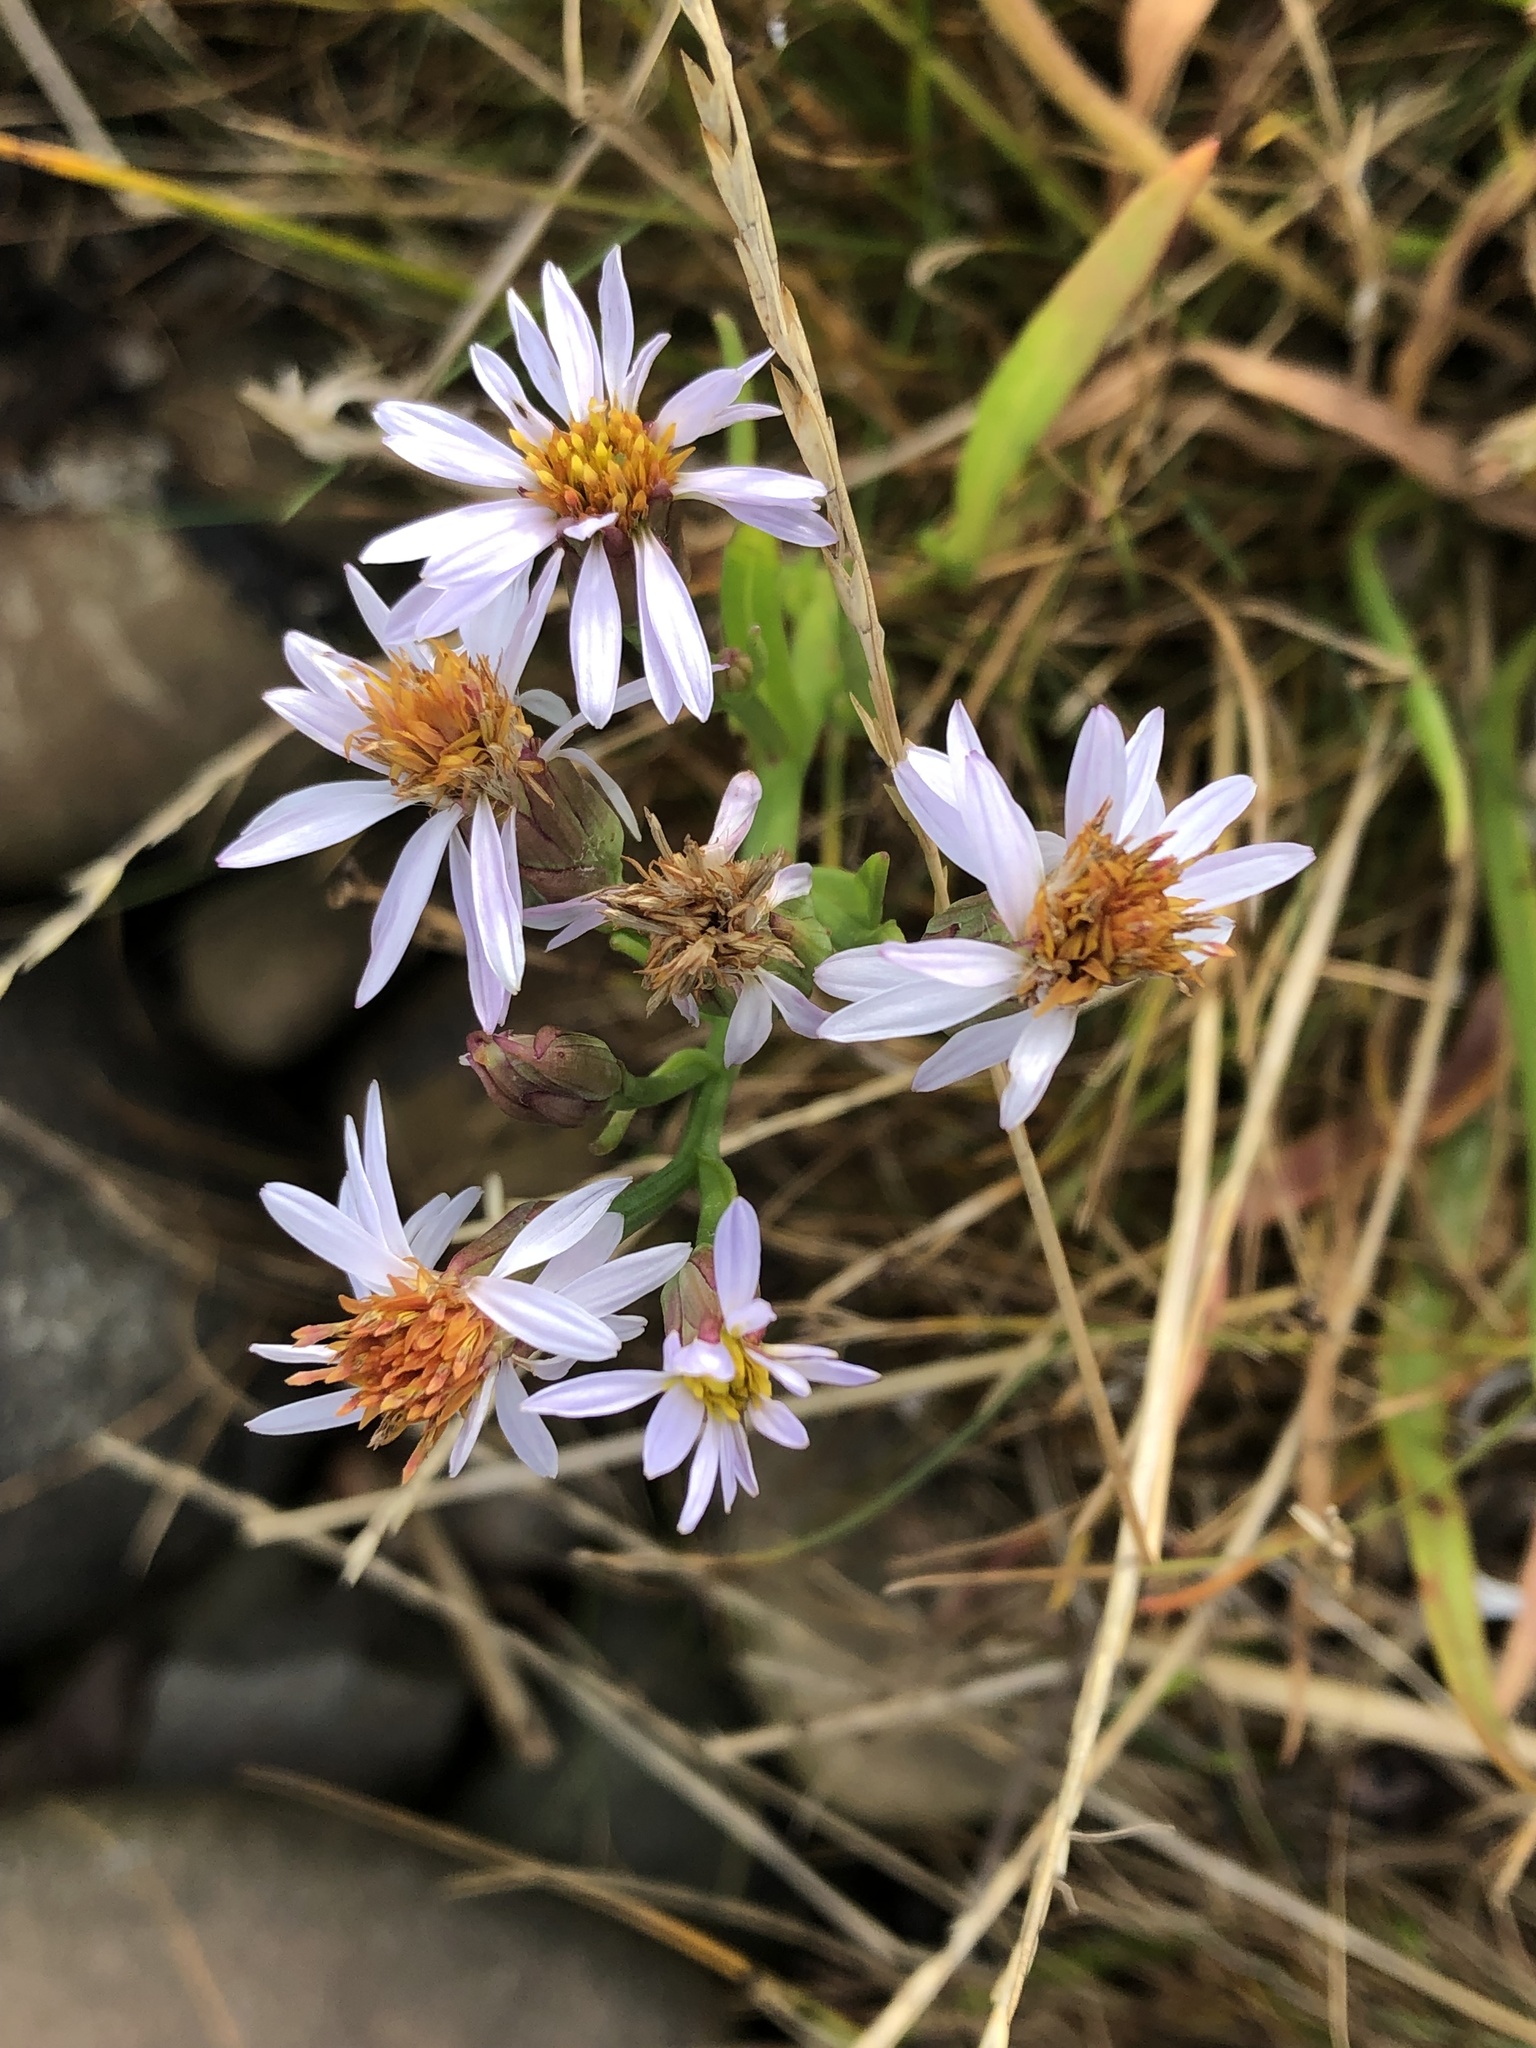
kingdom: Plantae
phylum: Tracheophyta
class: Magnoliopsida
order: Asterales
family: Asteraceae
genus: Tripolium
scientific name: Tripolium pannonicum
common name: Sea aster
